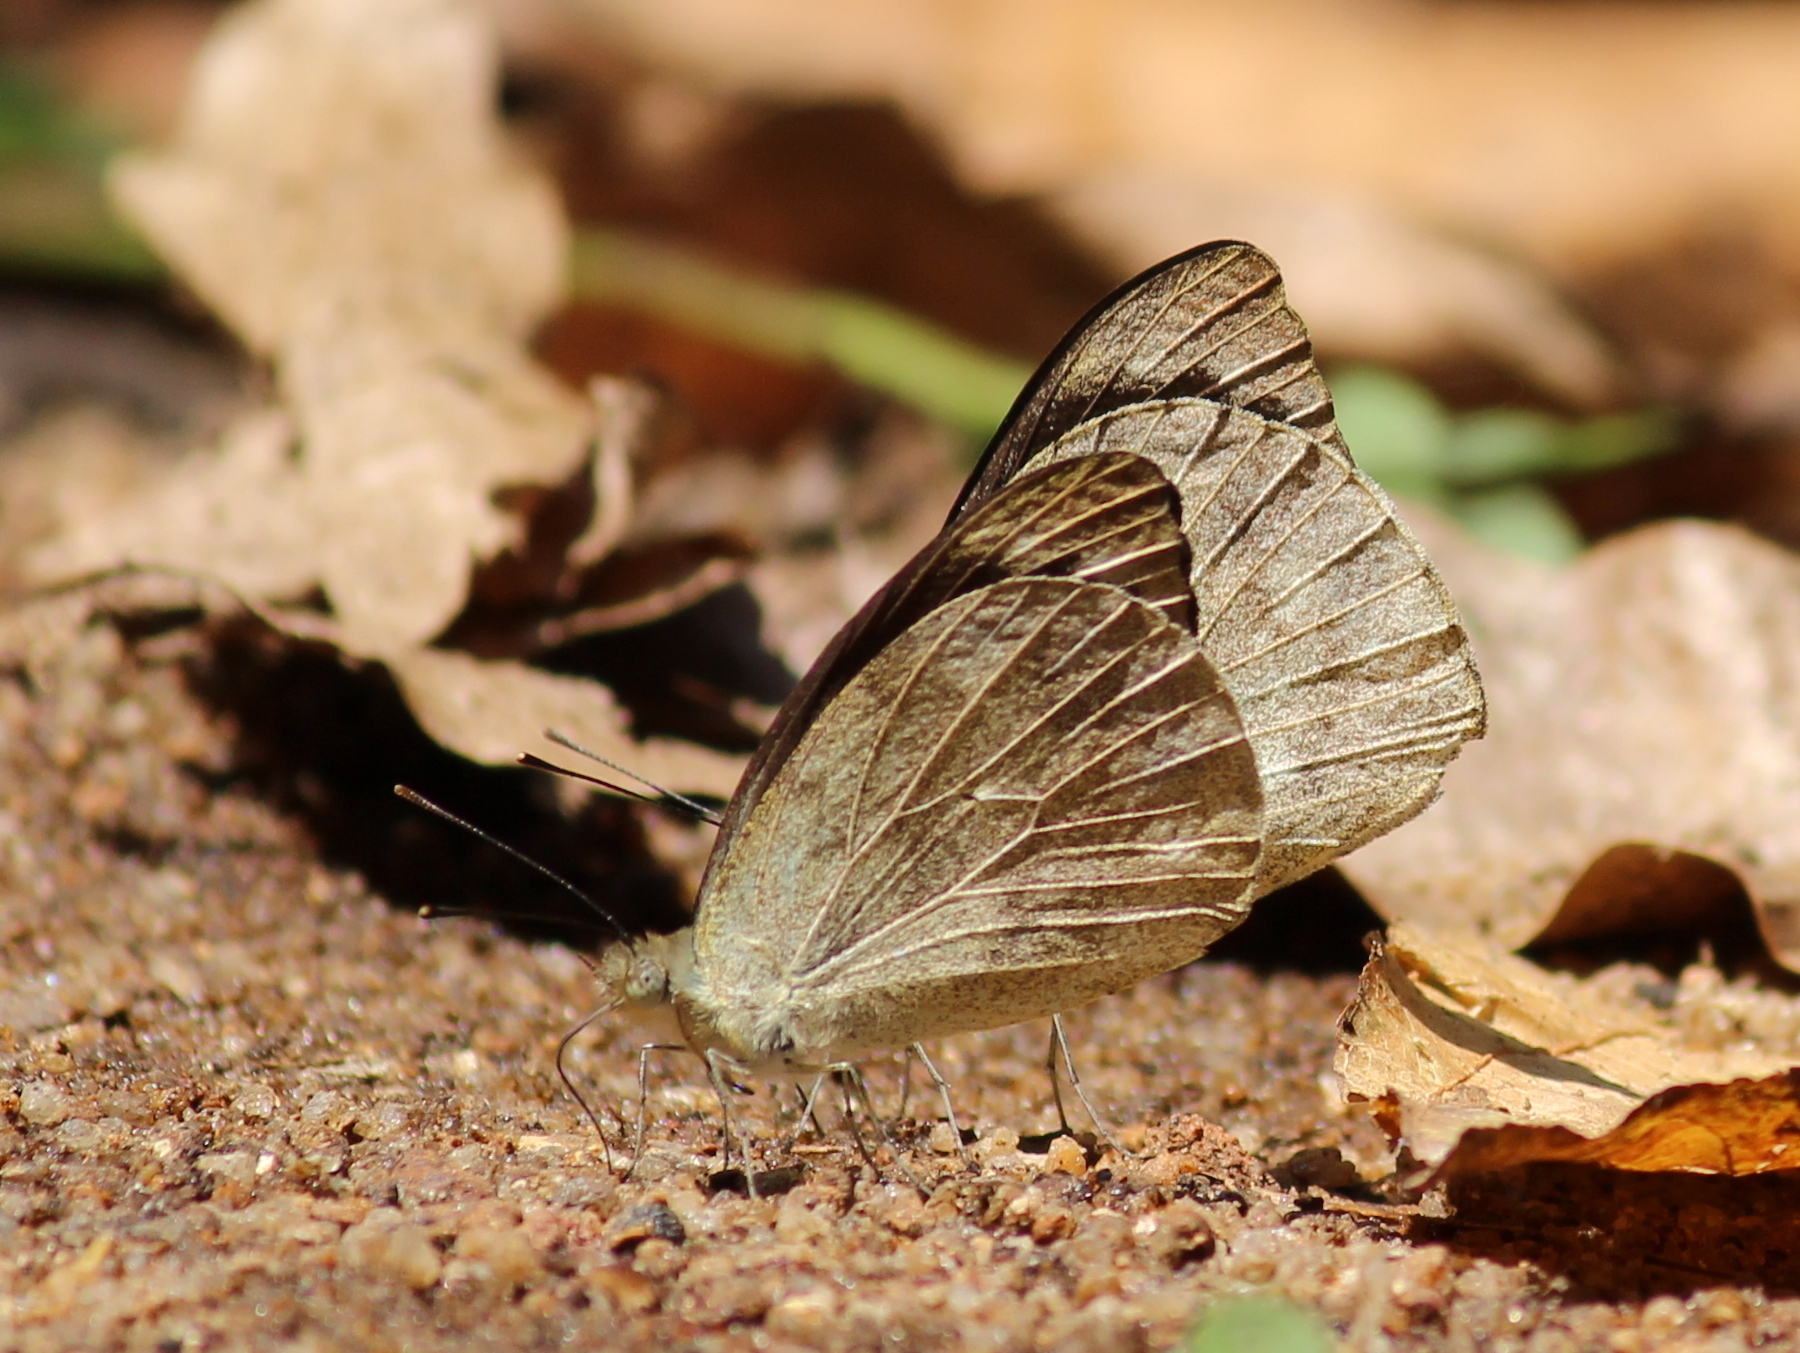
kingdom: Animalia
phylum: Arthropoda
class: Insecta
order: Lepidoptera
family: Pieridae
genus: Appias
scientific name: Appias indra
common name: Plain puffin
